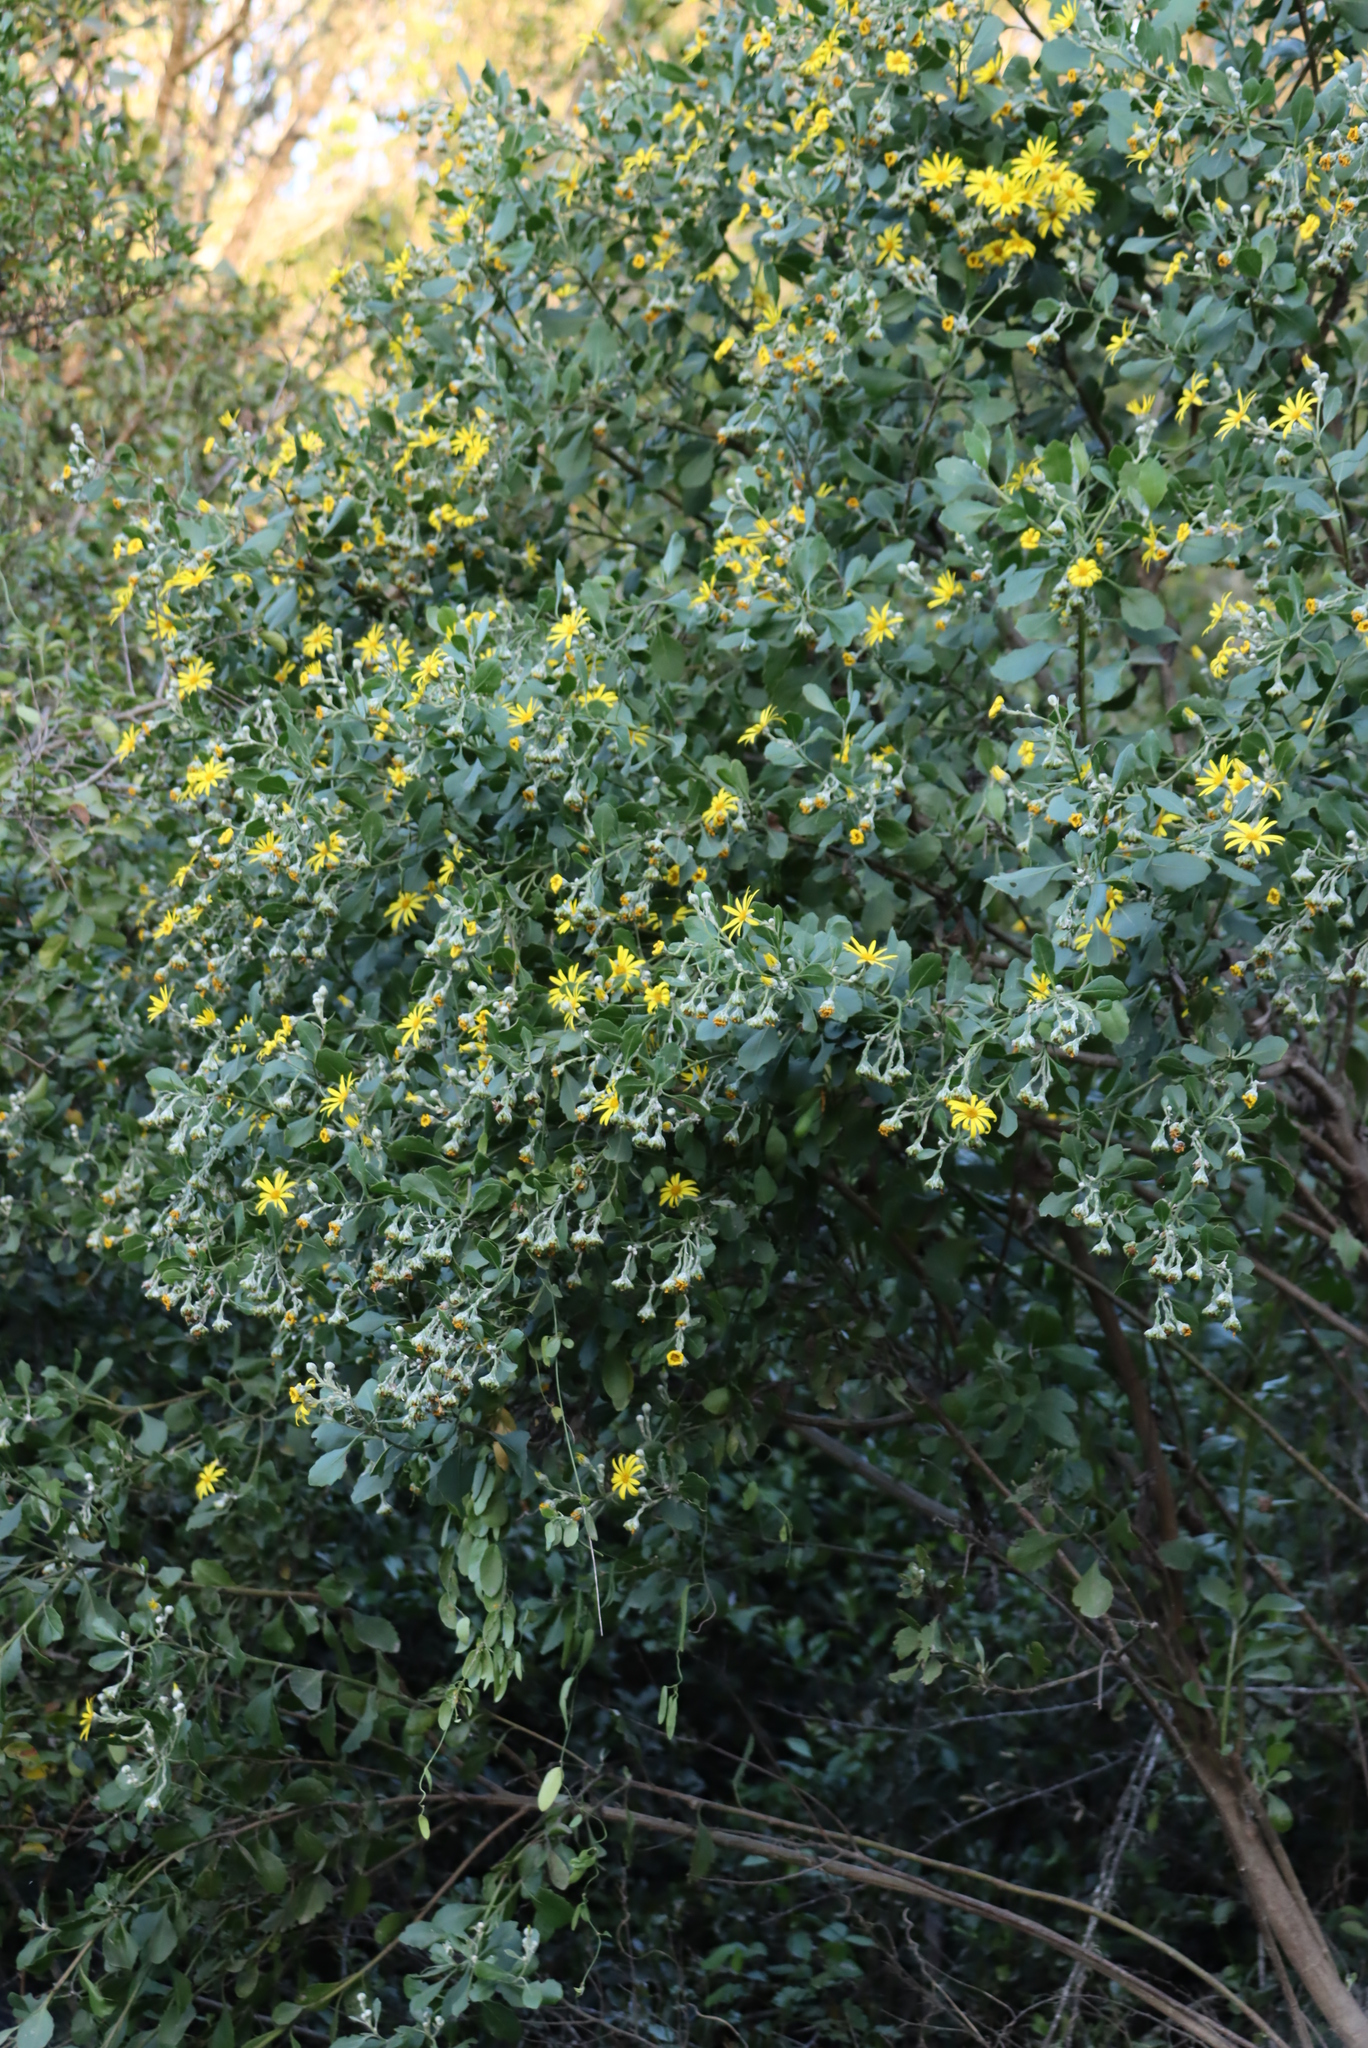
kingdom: Plantae
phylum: Tracheophyta
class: Magnoliopsida
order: Asterales
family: Asteraceae
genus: Osteospermum
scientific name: Osteospermum moniliferum
